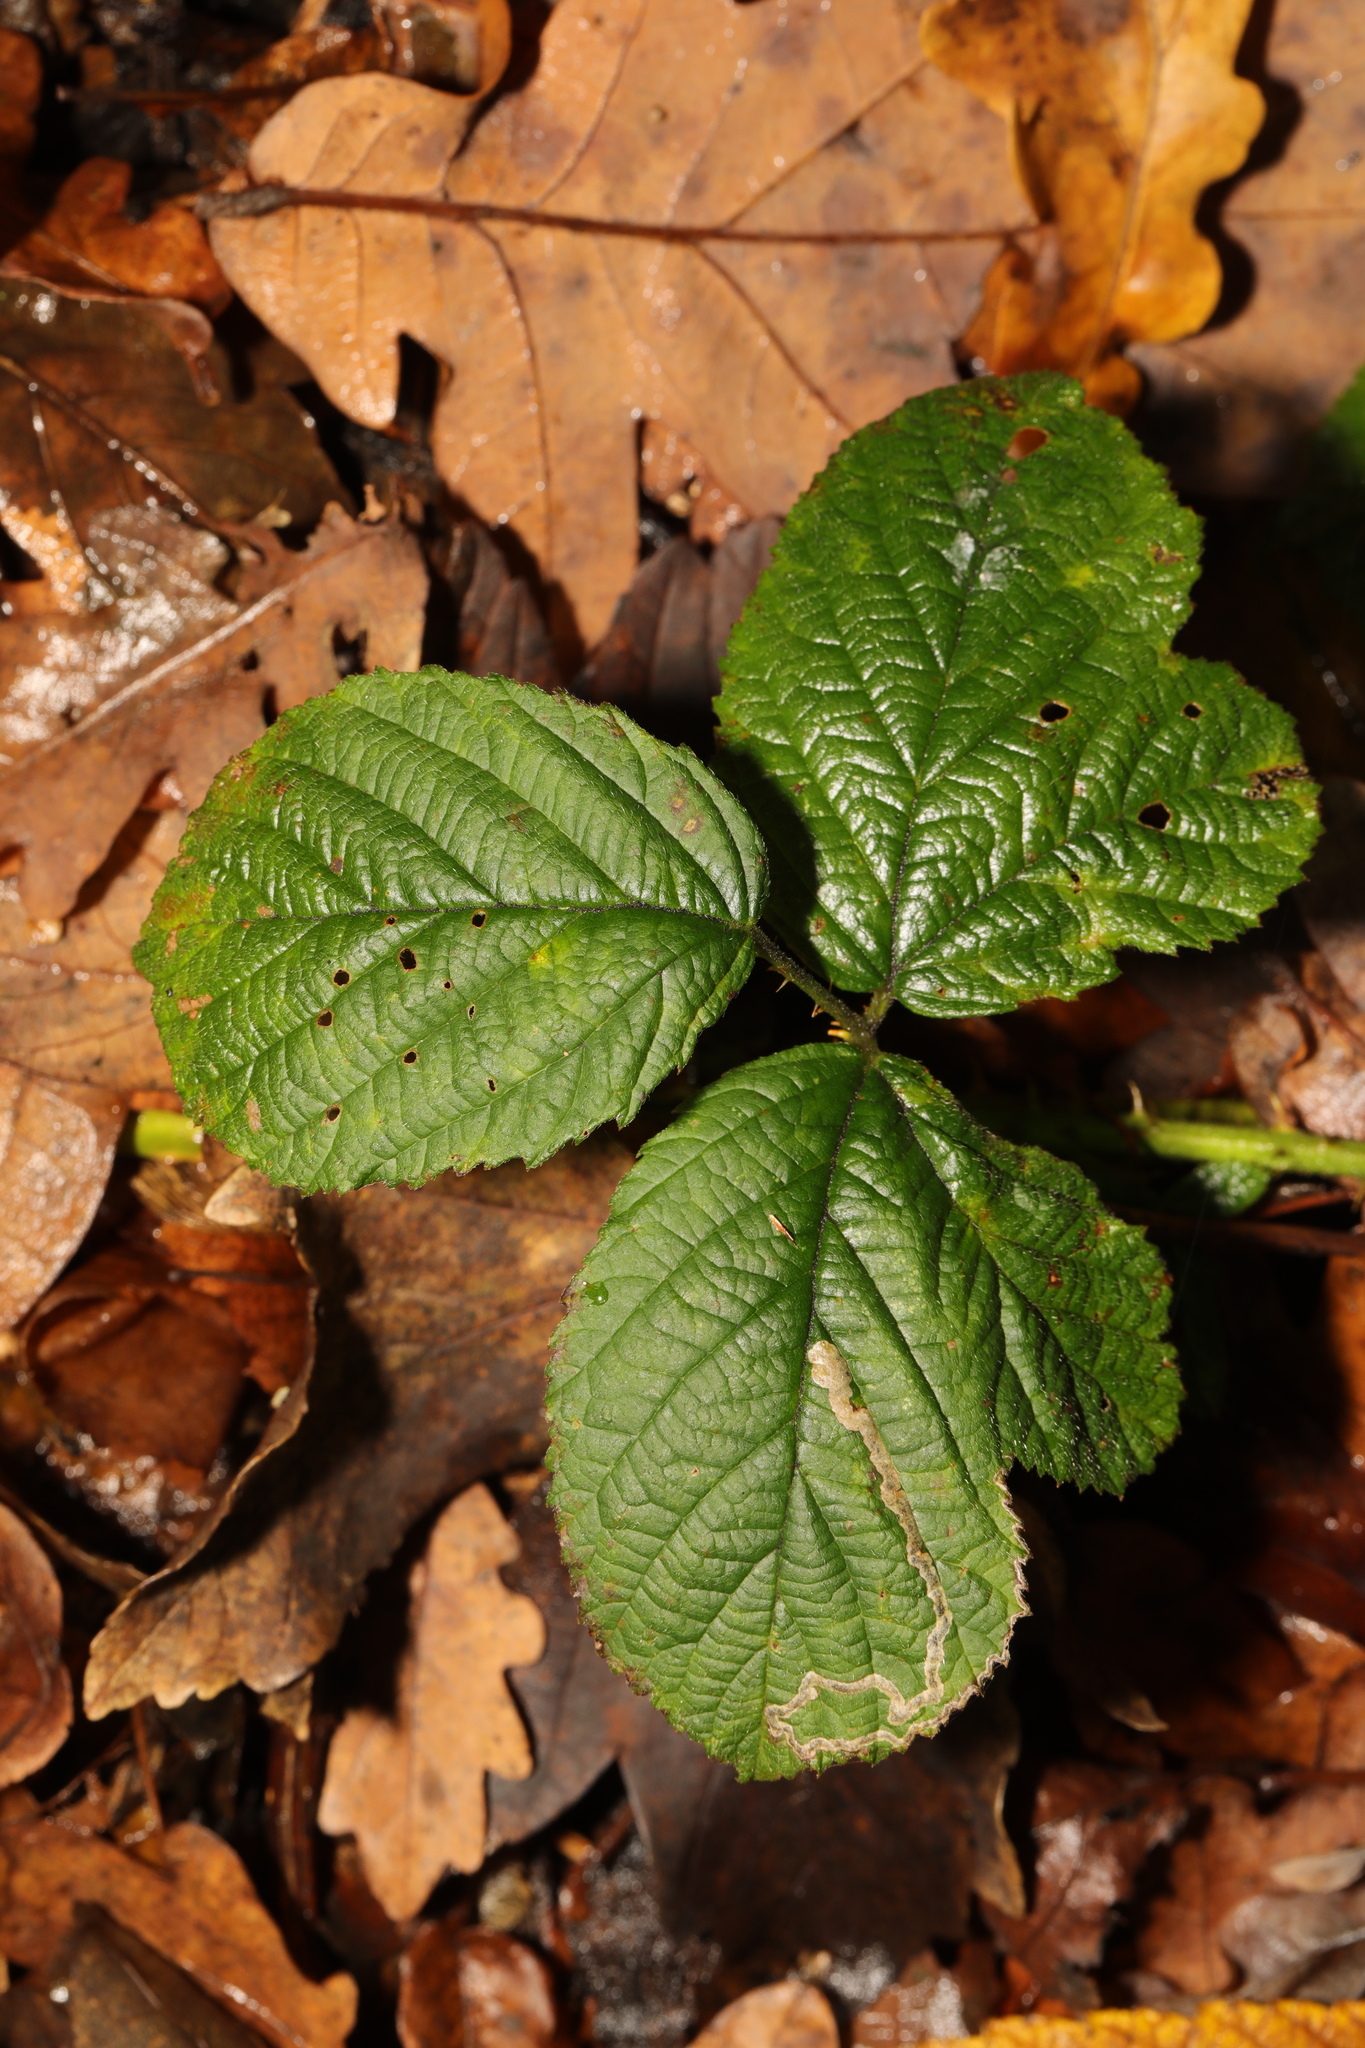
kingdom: Plantae
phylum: Tracheophyta
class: Magnoliopsida
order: Rosales
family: Rosaceae
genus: Rubus
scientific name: Rubus horrefactus
